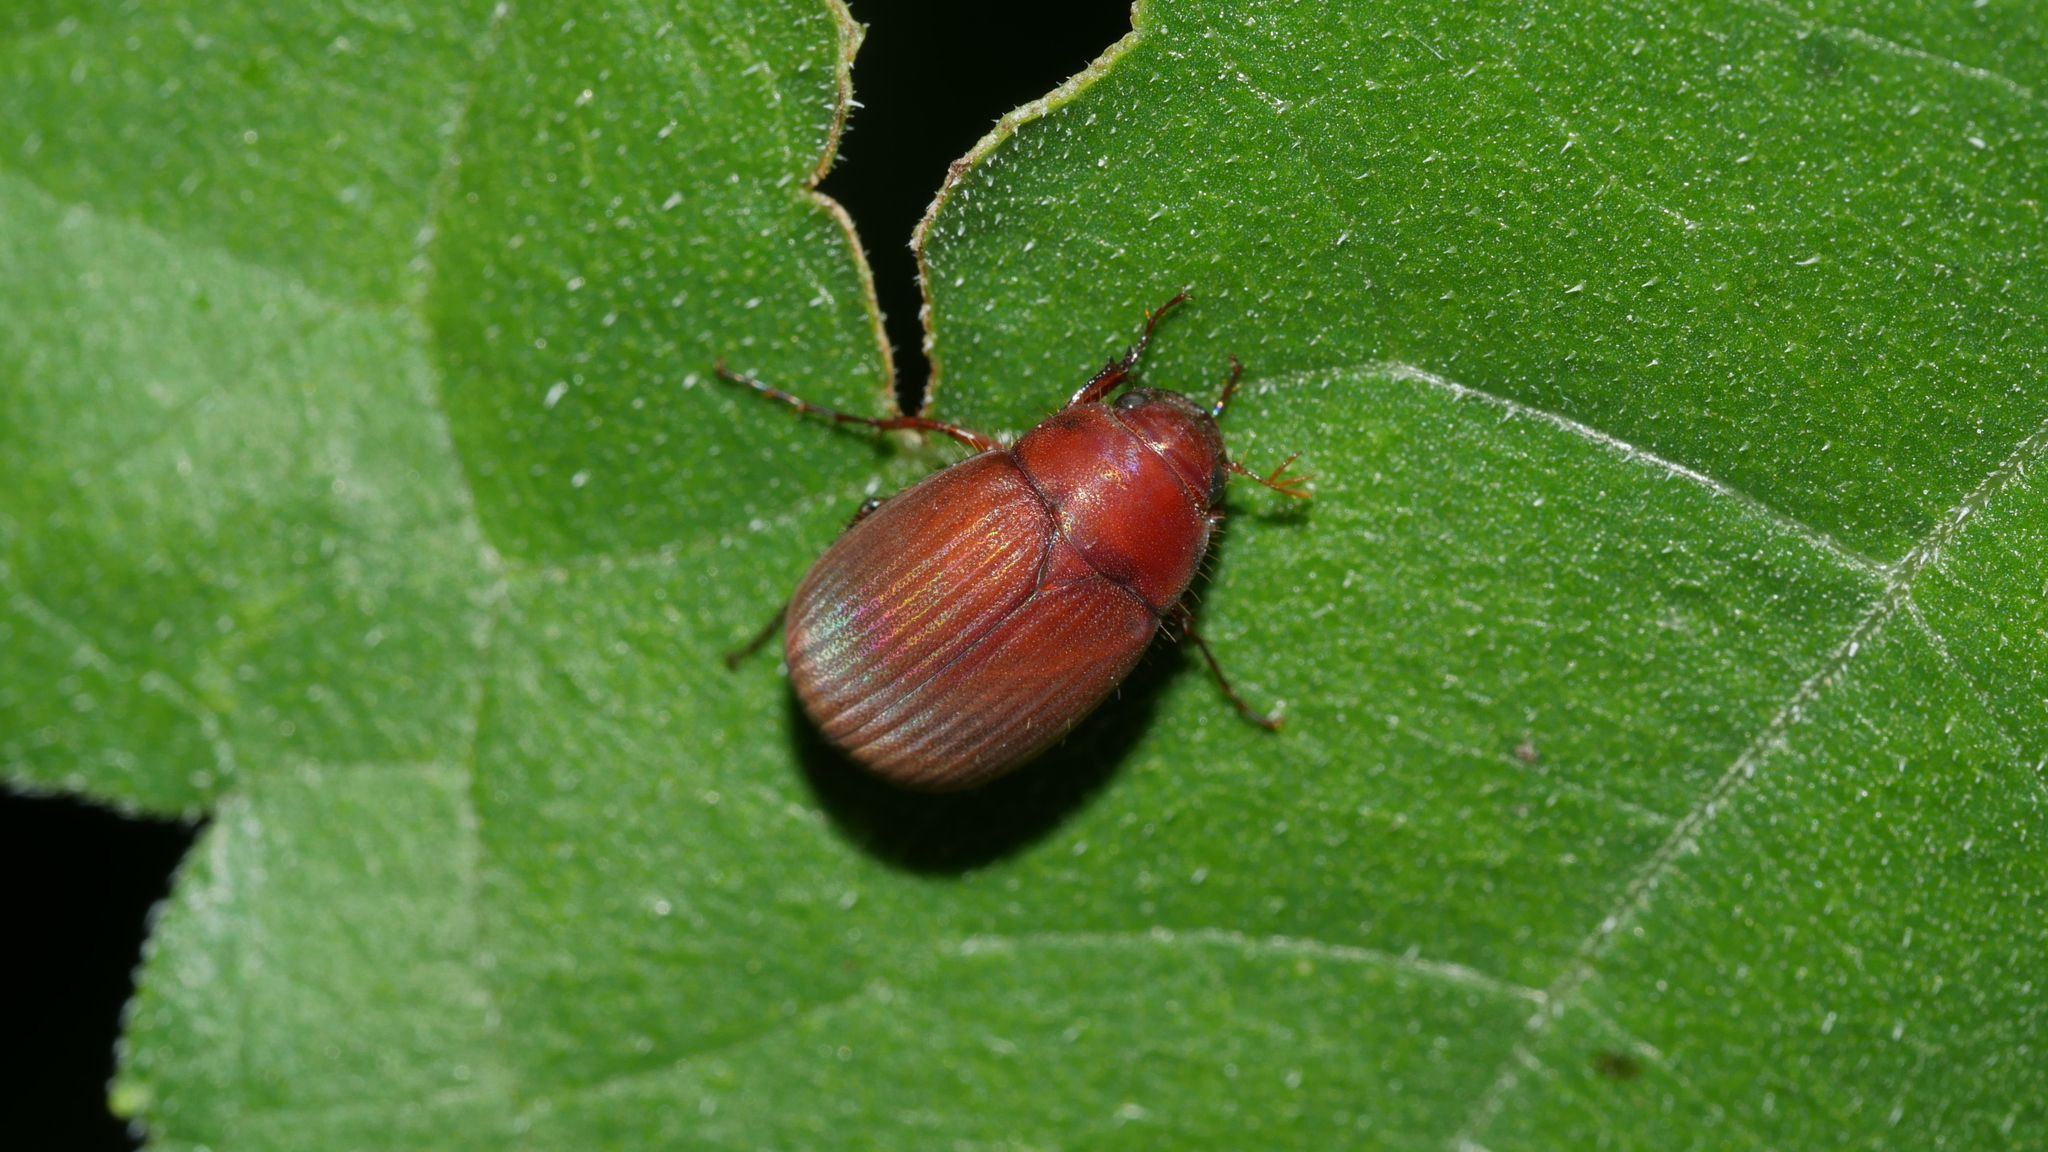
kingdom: Animalia
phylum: Arthropoda
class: Insecta
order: Coleoptera
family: Scarabaeidae
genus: Maladera
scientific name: Maladera formosae
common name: Asiatic garden beetle
